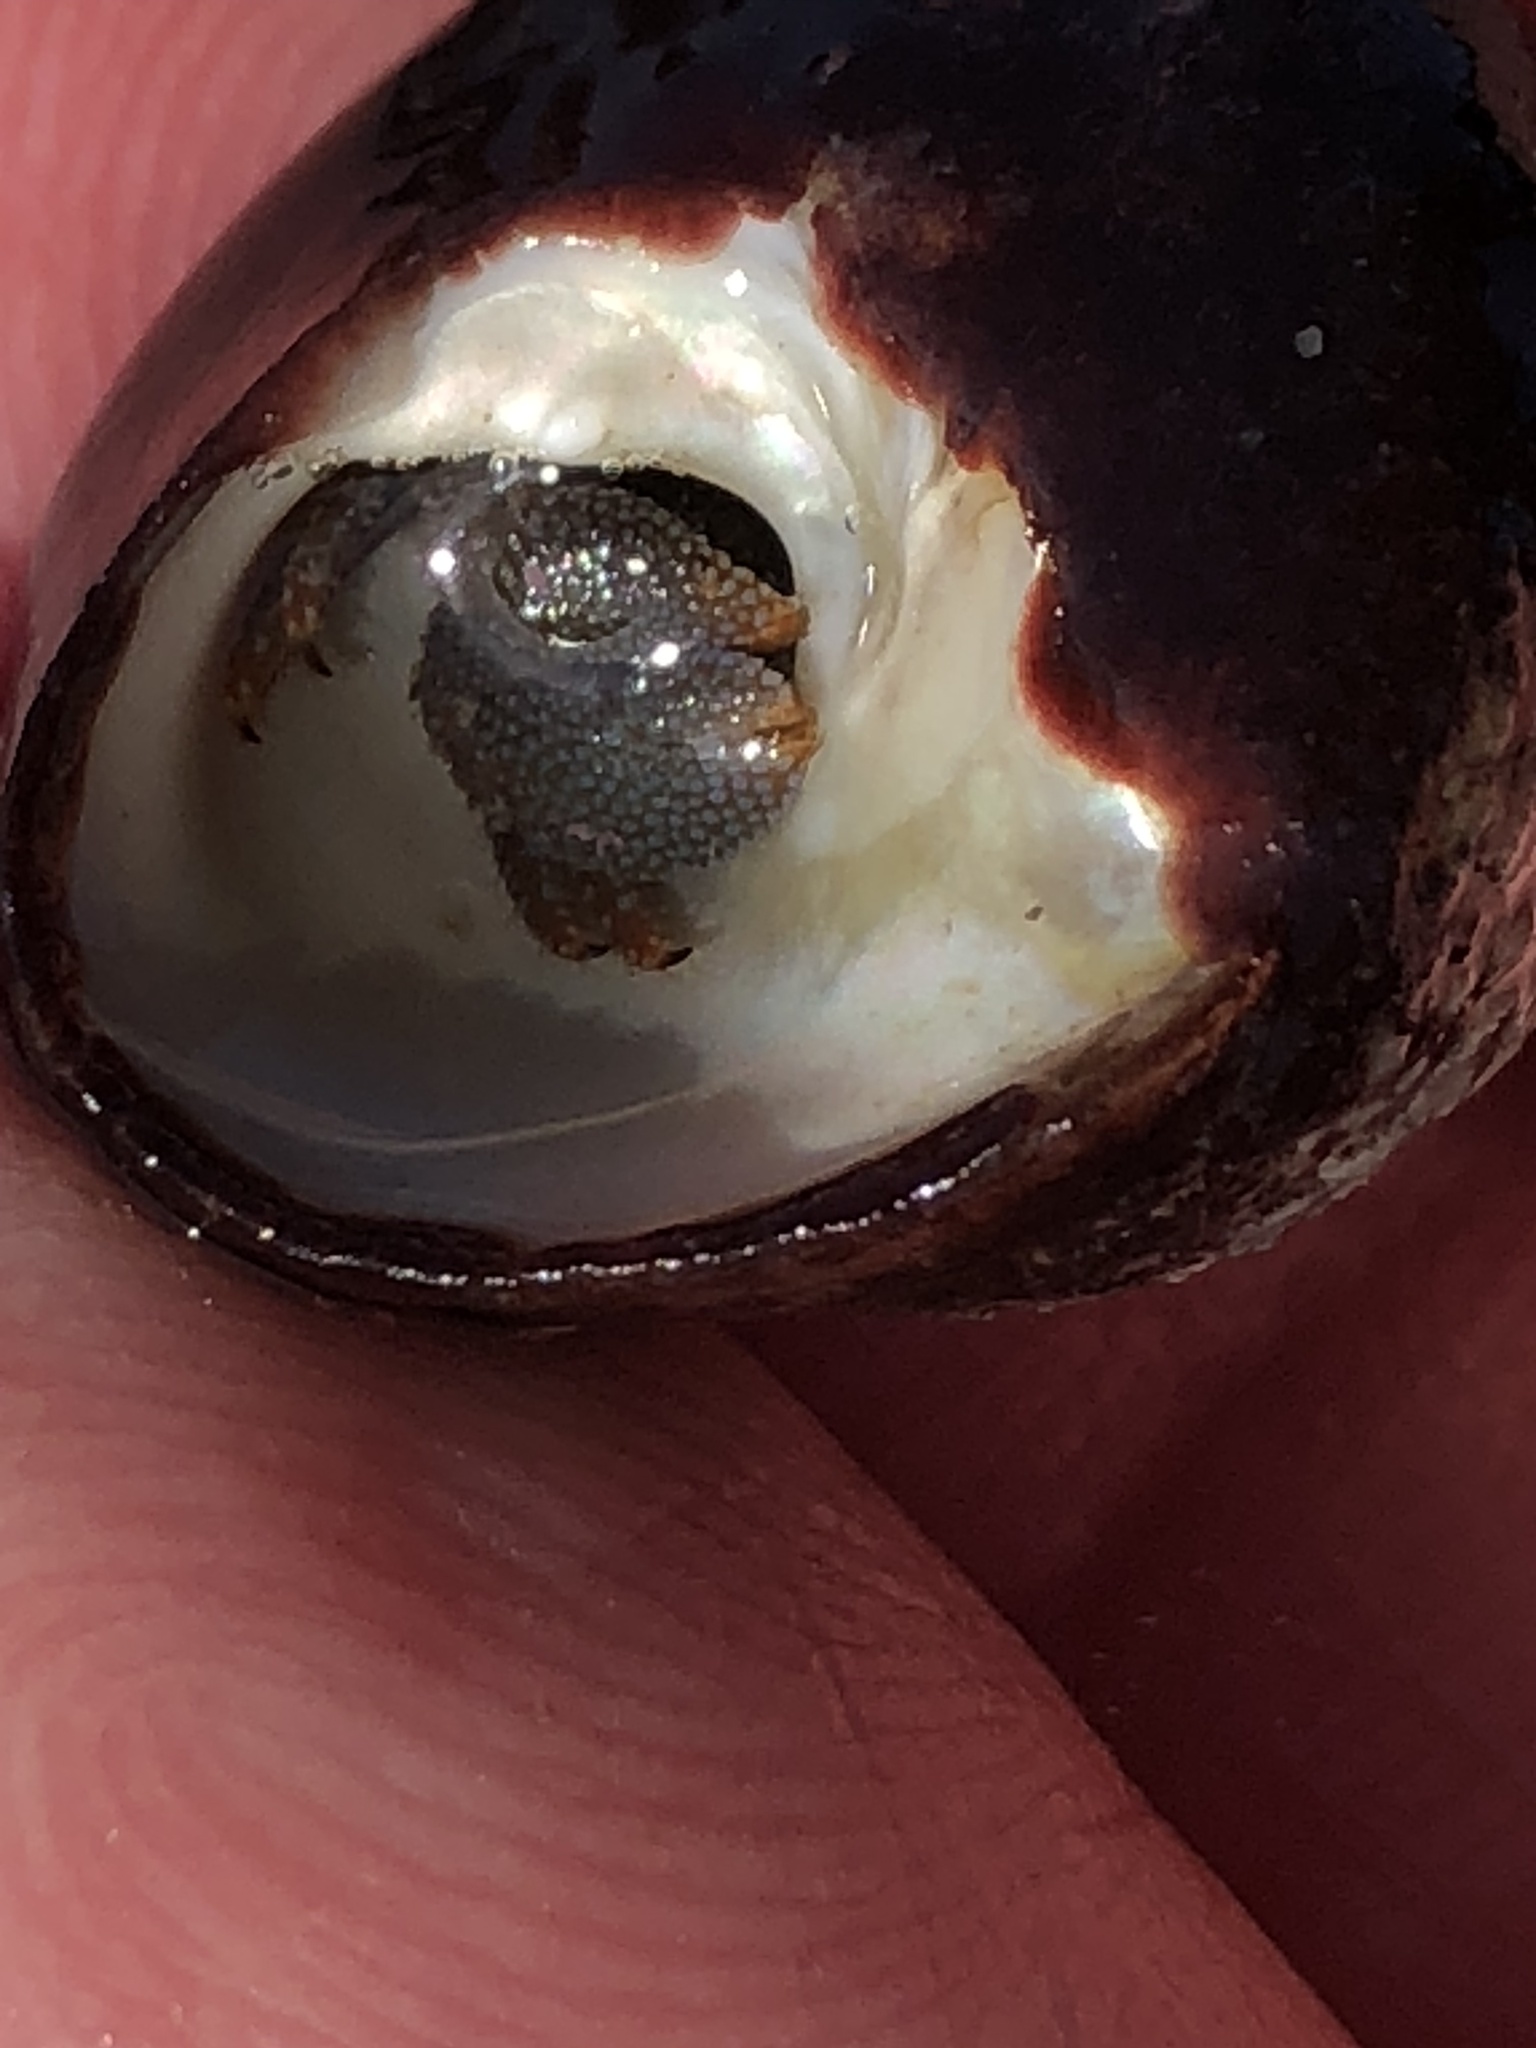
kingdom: Animalia
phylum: Arthropoda
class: Malacostraca
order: Decapoda
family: Paguridae
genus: Pagurus
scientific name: Pagurus granosimanus
